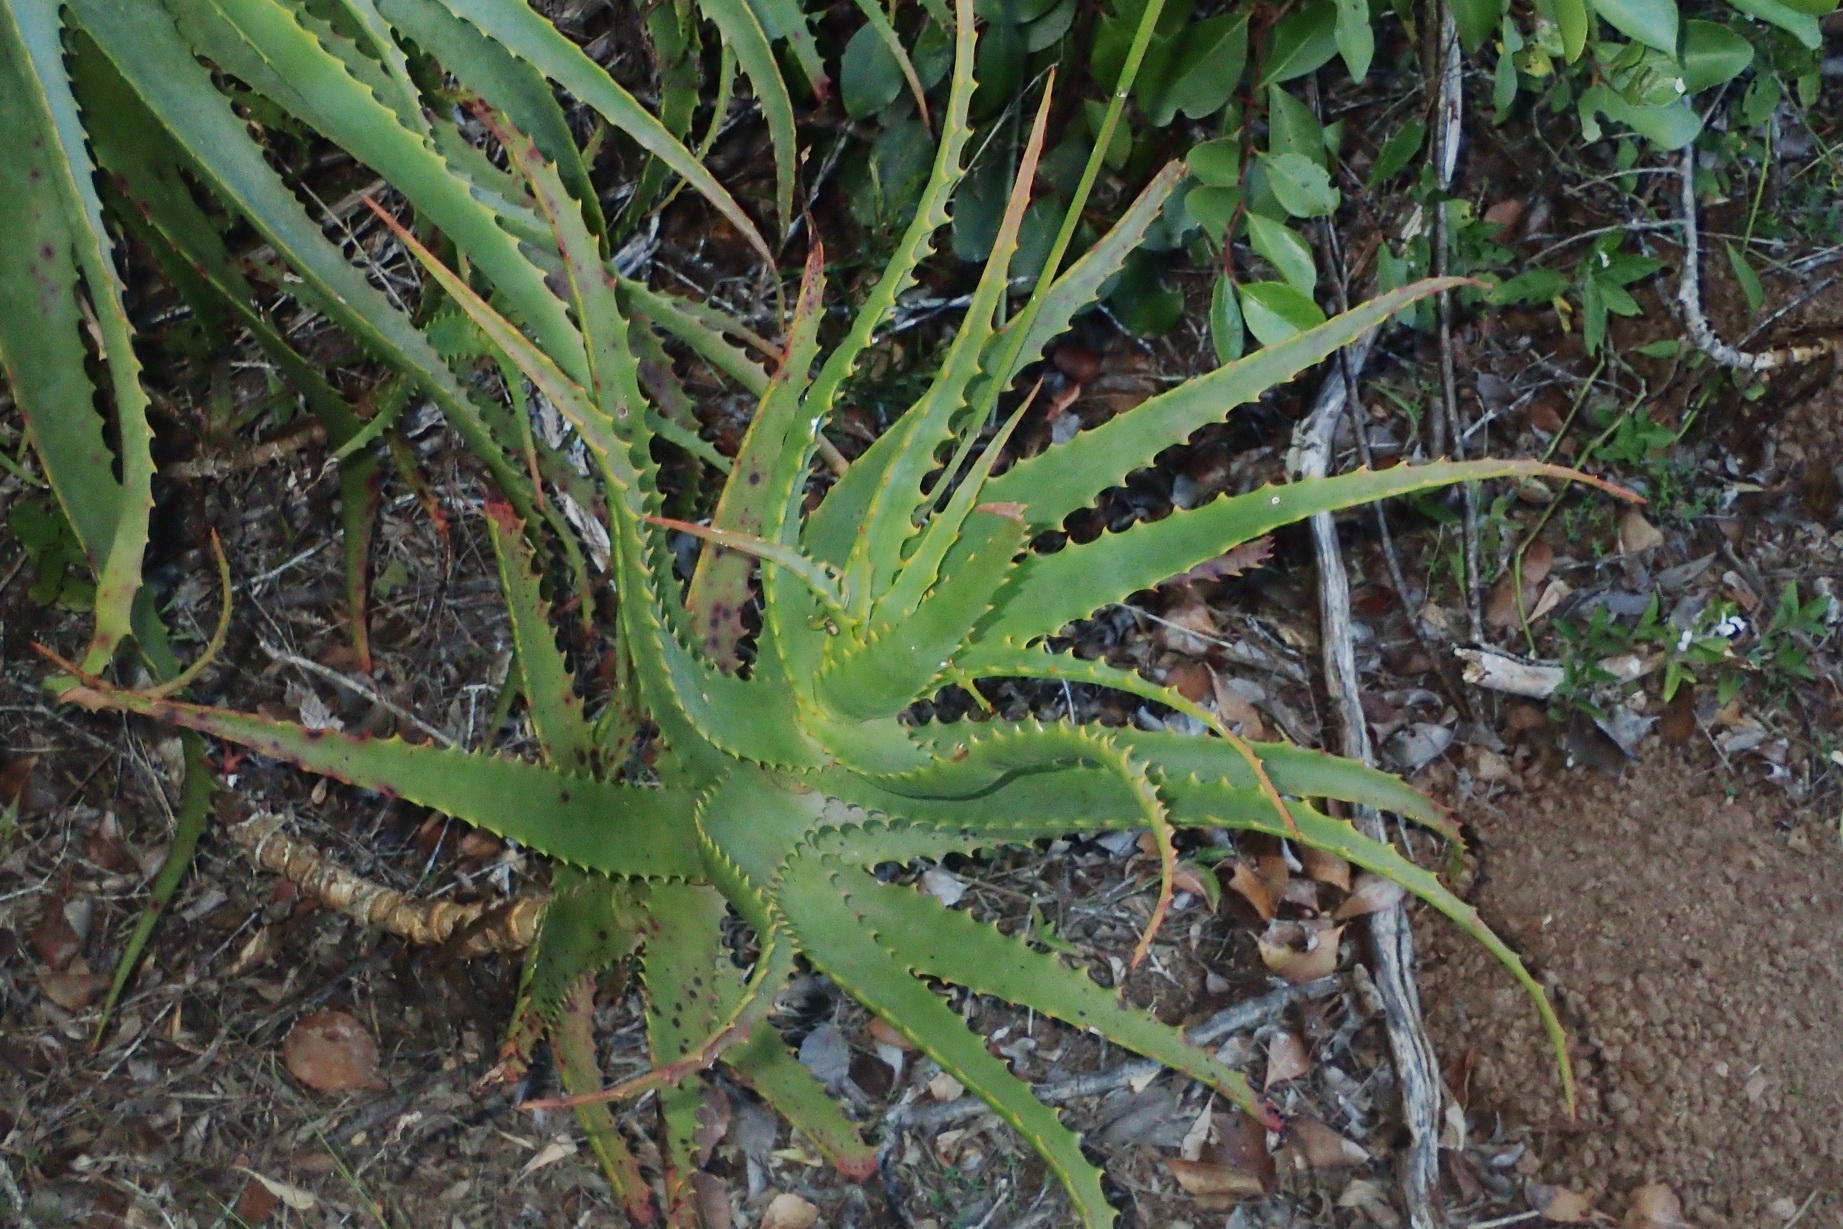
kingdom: Plantae
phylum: Tracheophyta
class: Liliopsida
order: Asparagales
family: Asphodelaceae
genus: Aloe
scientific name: Aloe arborescens
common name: Candelabra aloe
